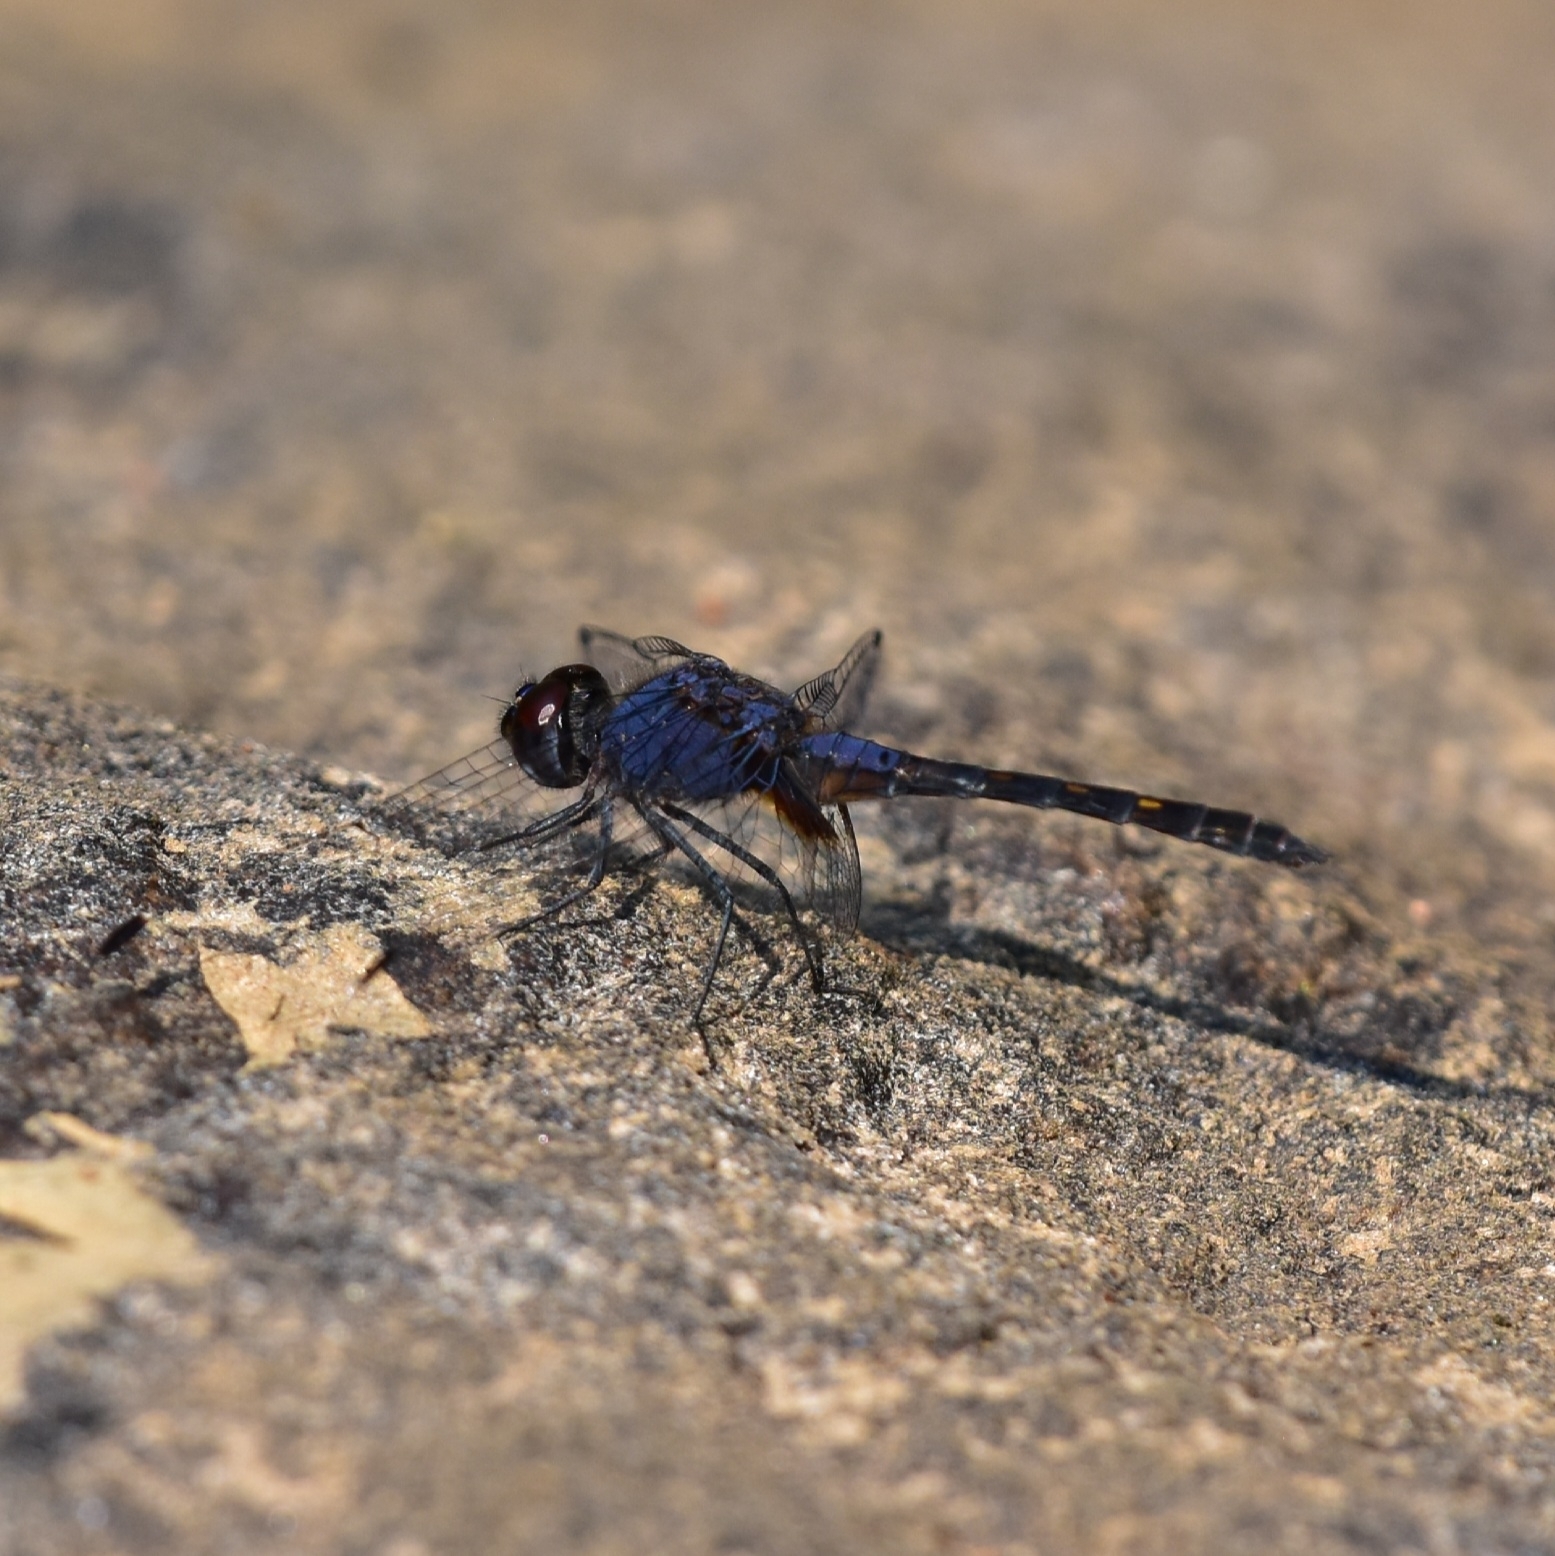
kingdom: Animalia
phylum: Arthropoda
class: Insecta
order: Odonata
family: Libellulidae
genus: Trithemis
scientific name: Trithemis festiva
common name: Indigo dropwing
